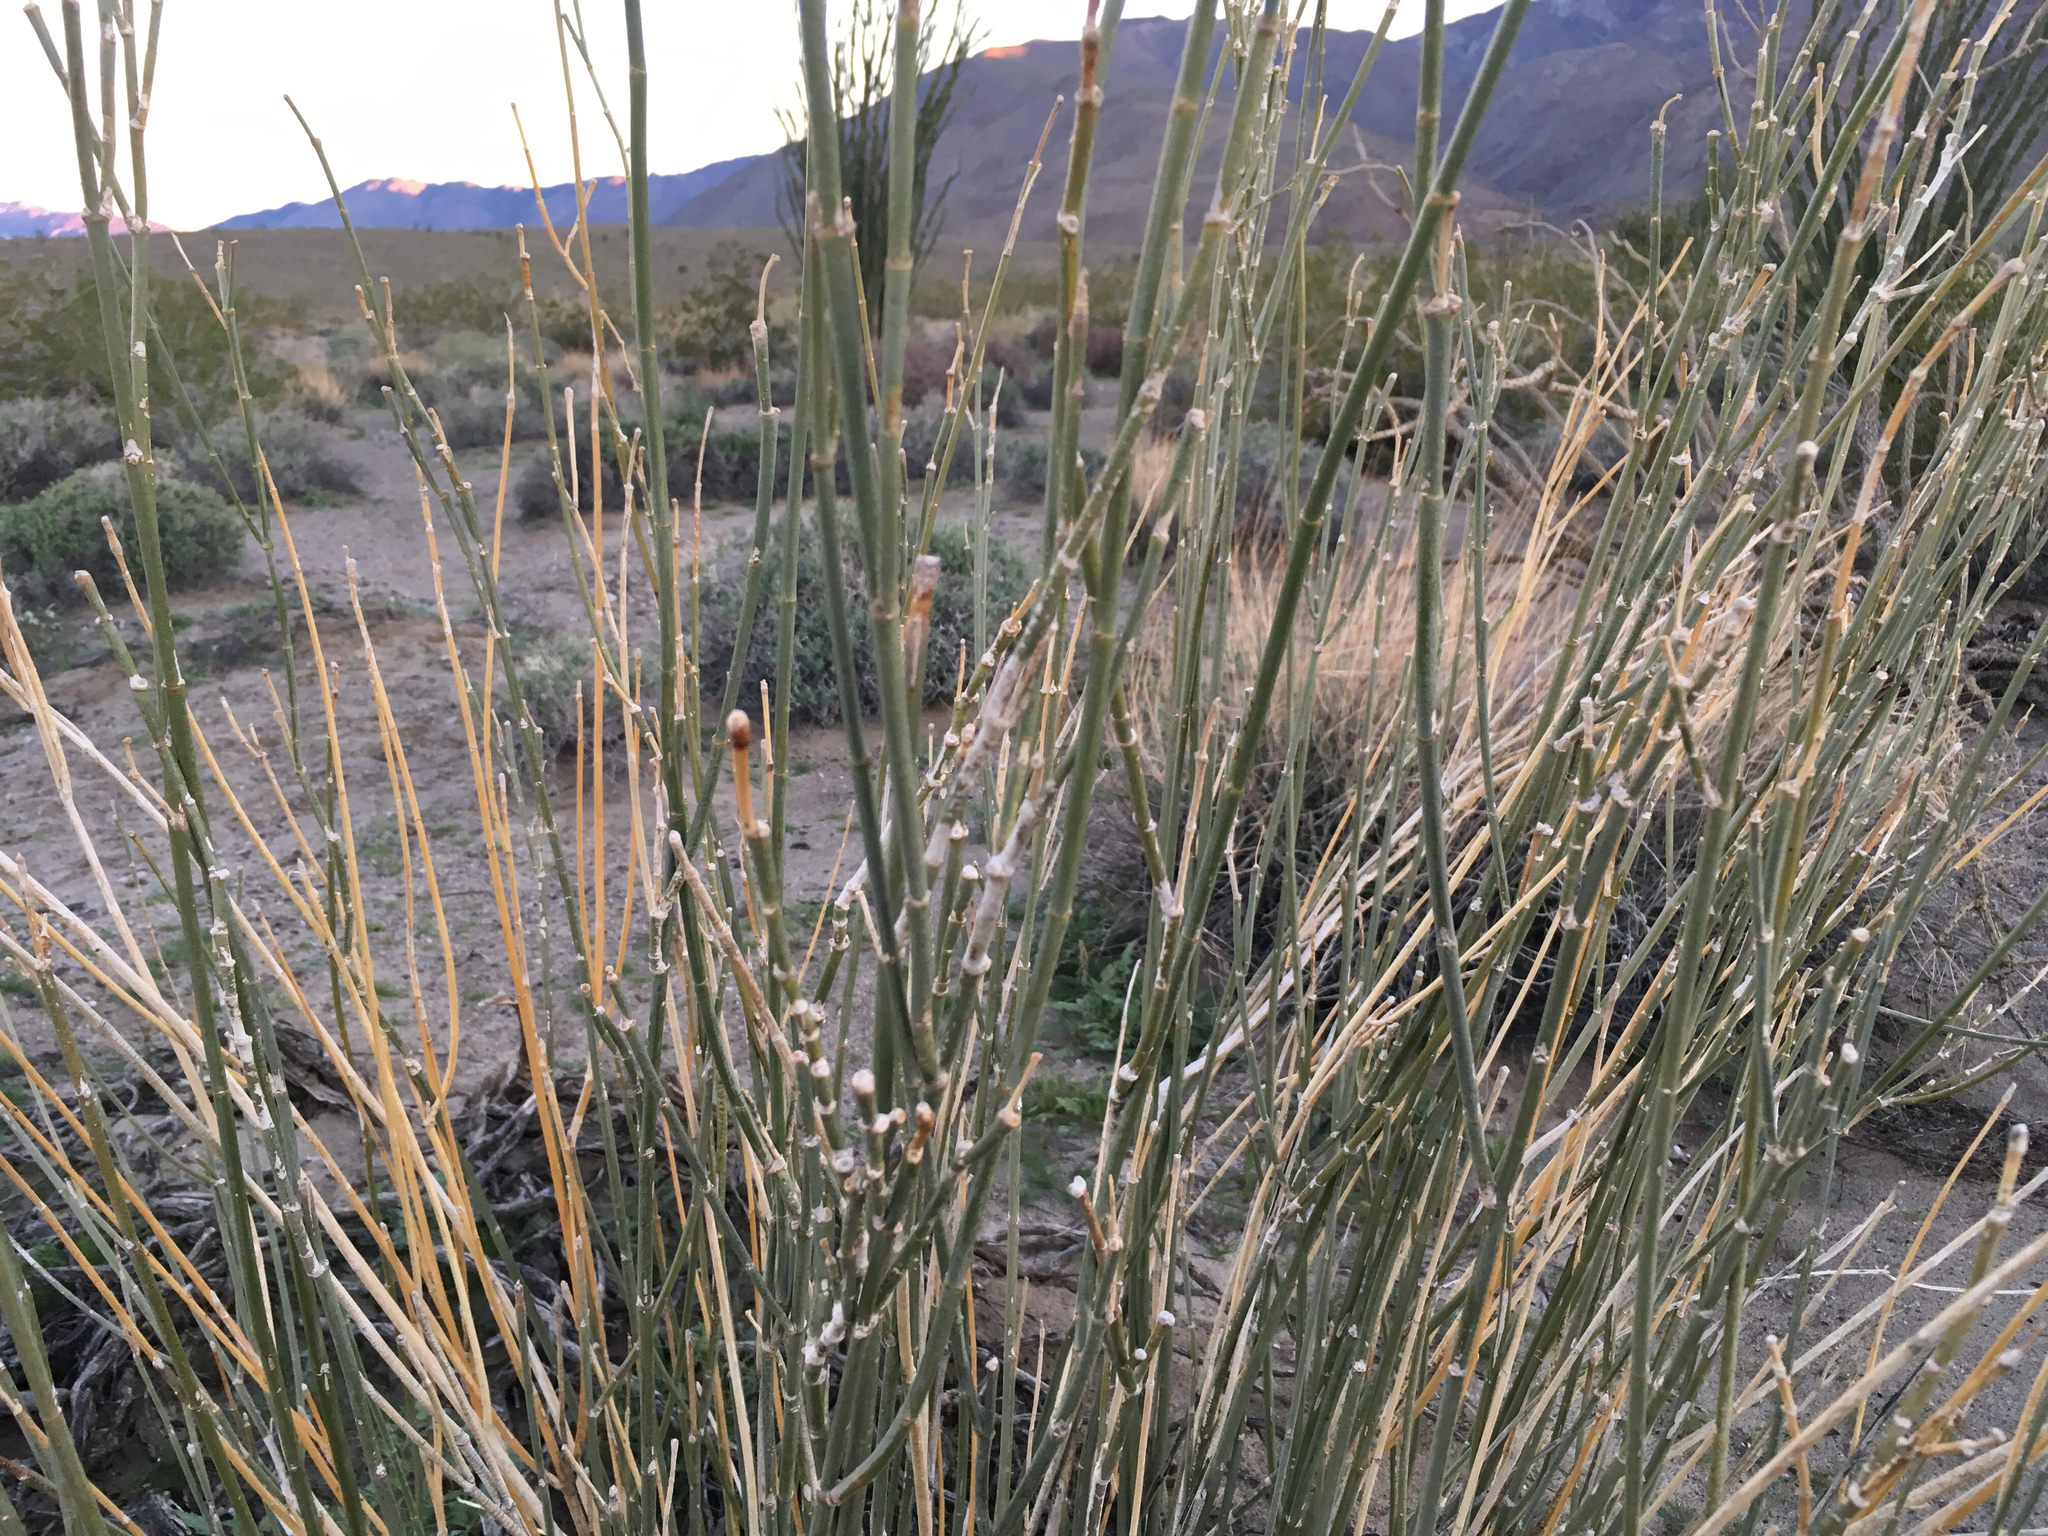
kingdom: Plantae
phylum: Tracheophyta
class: Magnoliopsida
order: Gentianales
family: Apocynaceae
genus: Asclepias
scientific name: Asclepias subulata
